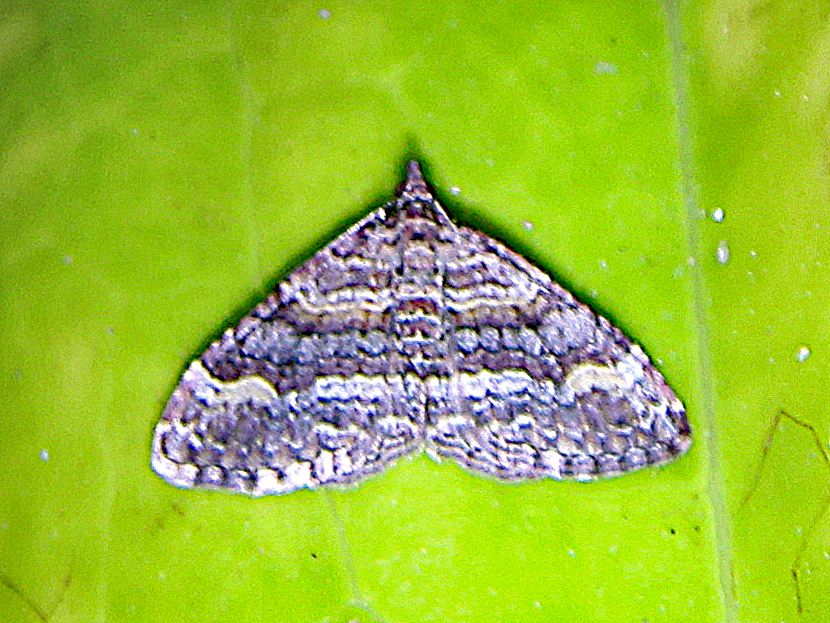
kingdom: Animalia
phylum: Arthropoda
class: Insecta
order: Lepidoptera
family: Geometridae
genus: Epyaxa
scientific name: Epyaxa lucidata
